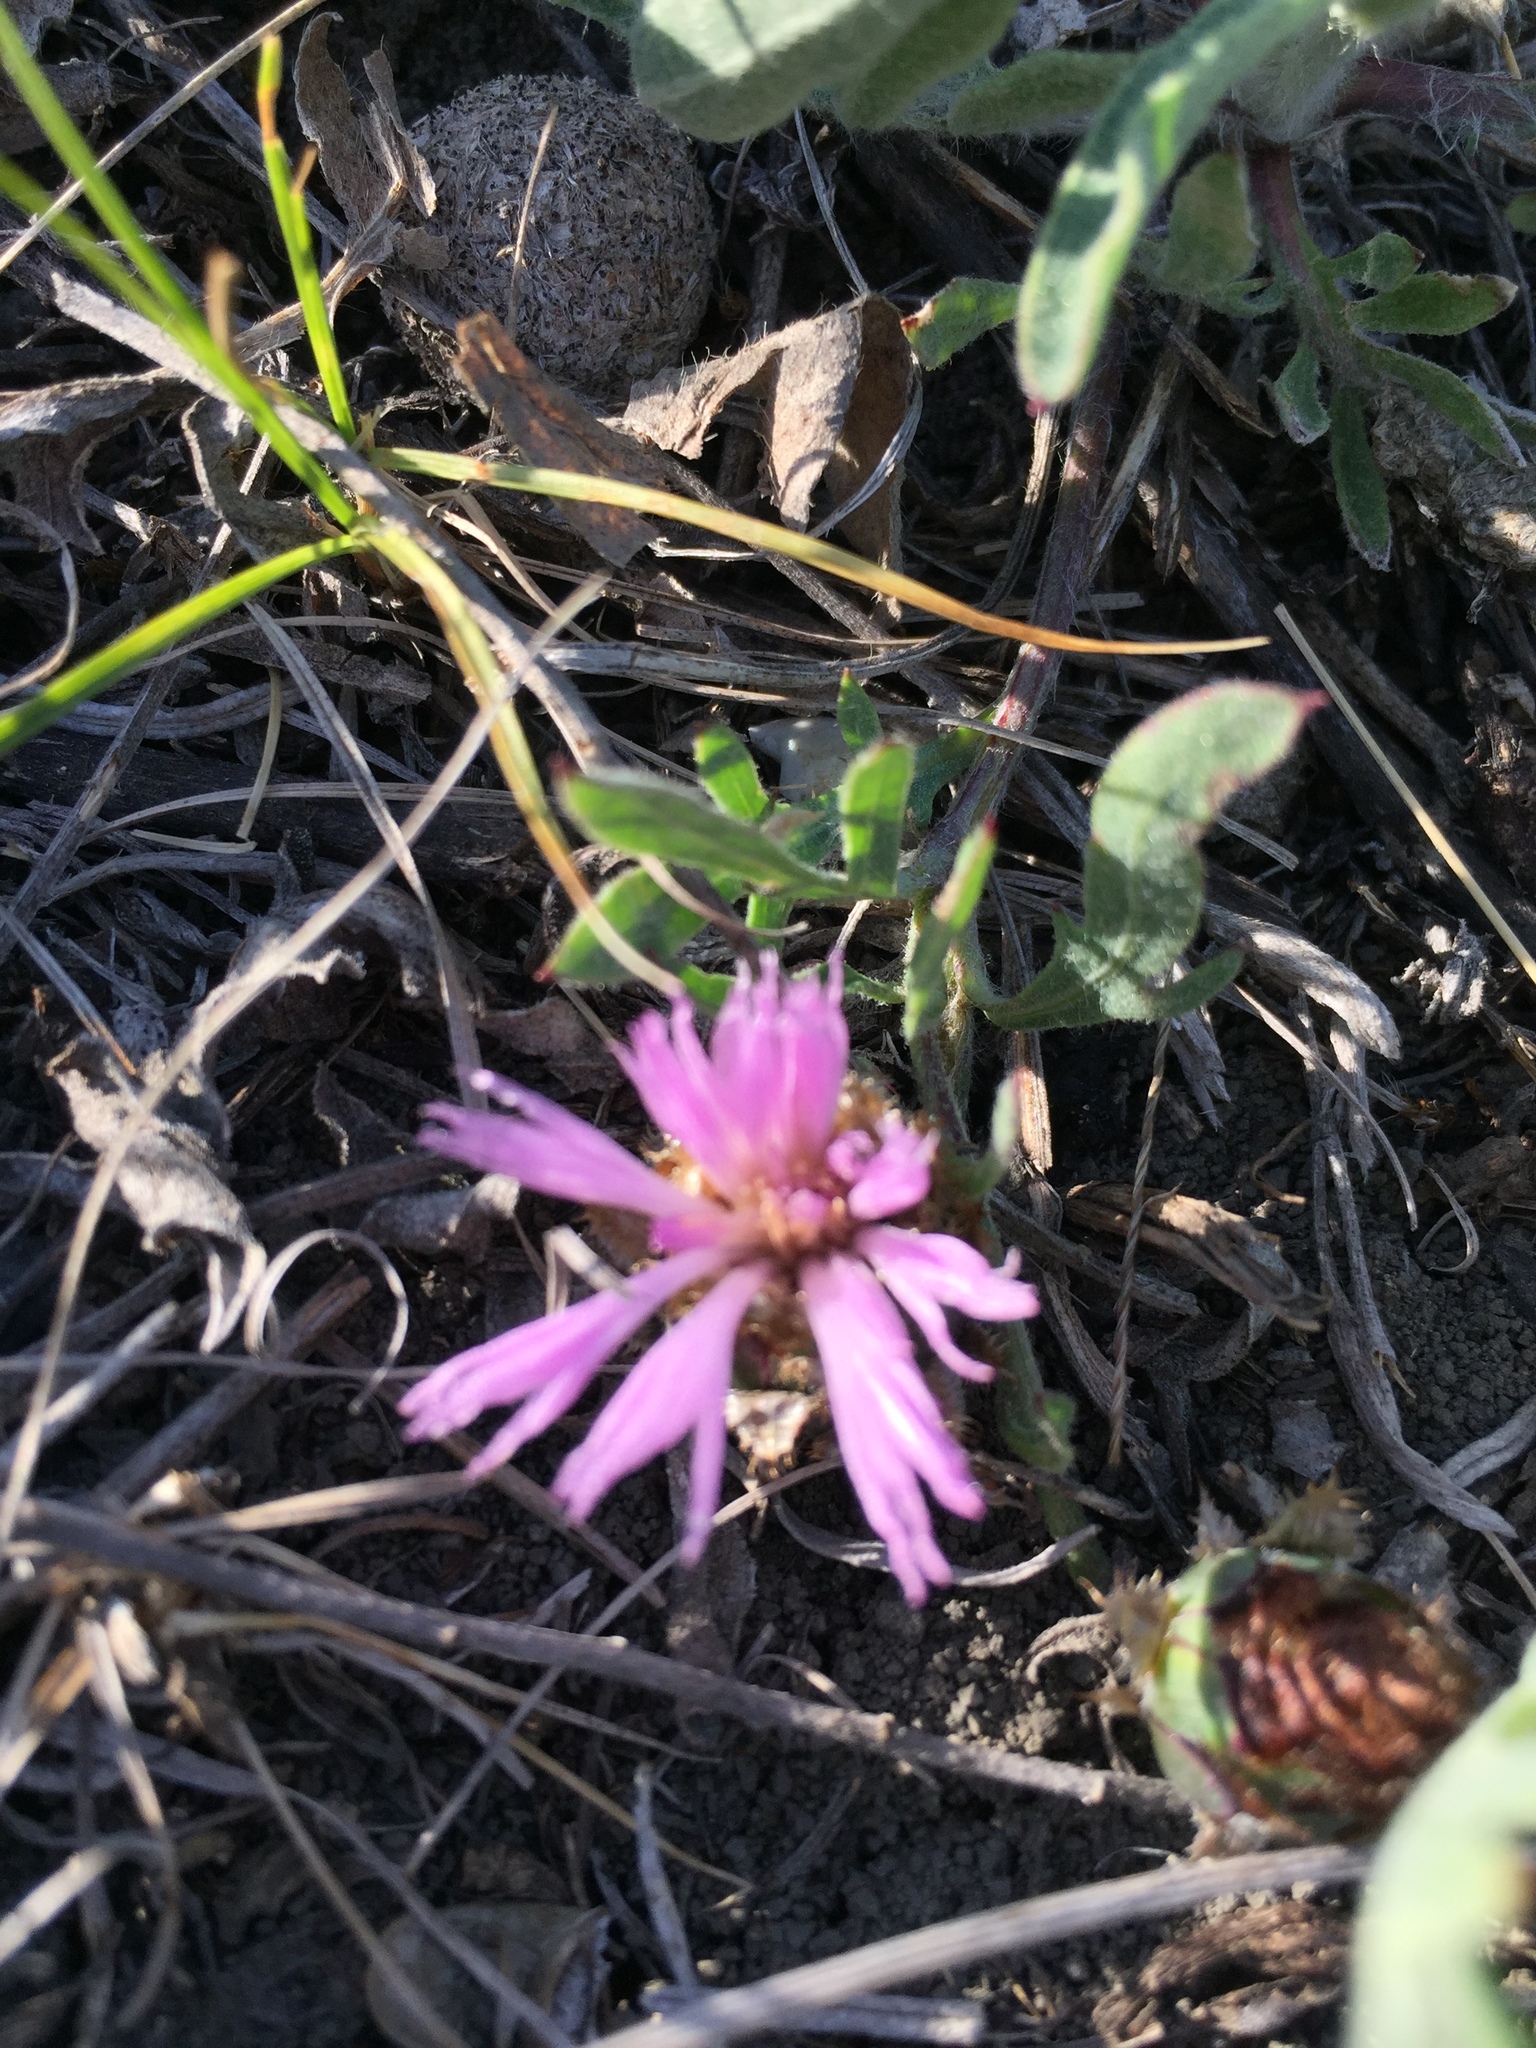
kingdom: Plantae
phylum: Tracheophyta
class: Magnoliopsida
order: Asterales
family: Asteraceae
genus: Psephellus
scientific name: Psephellus marschallianus
